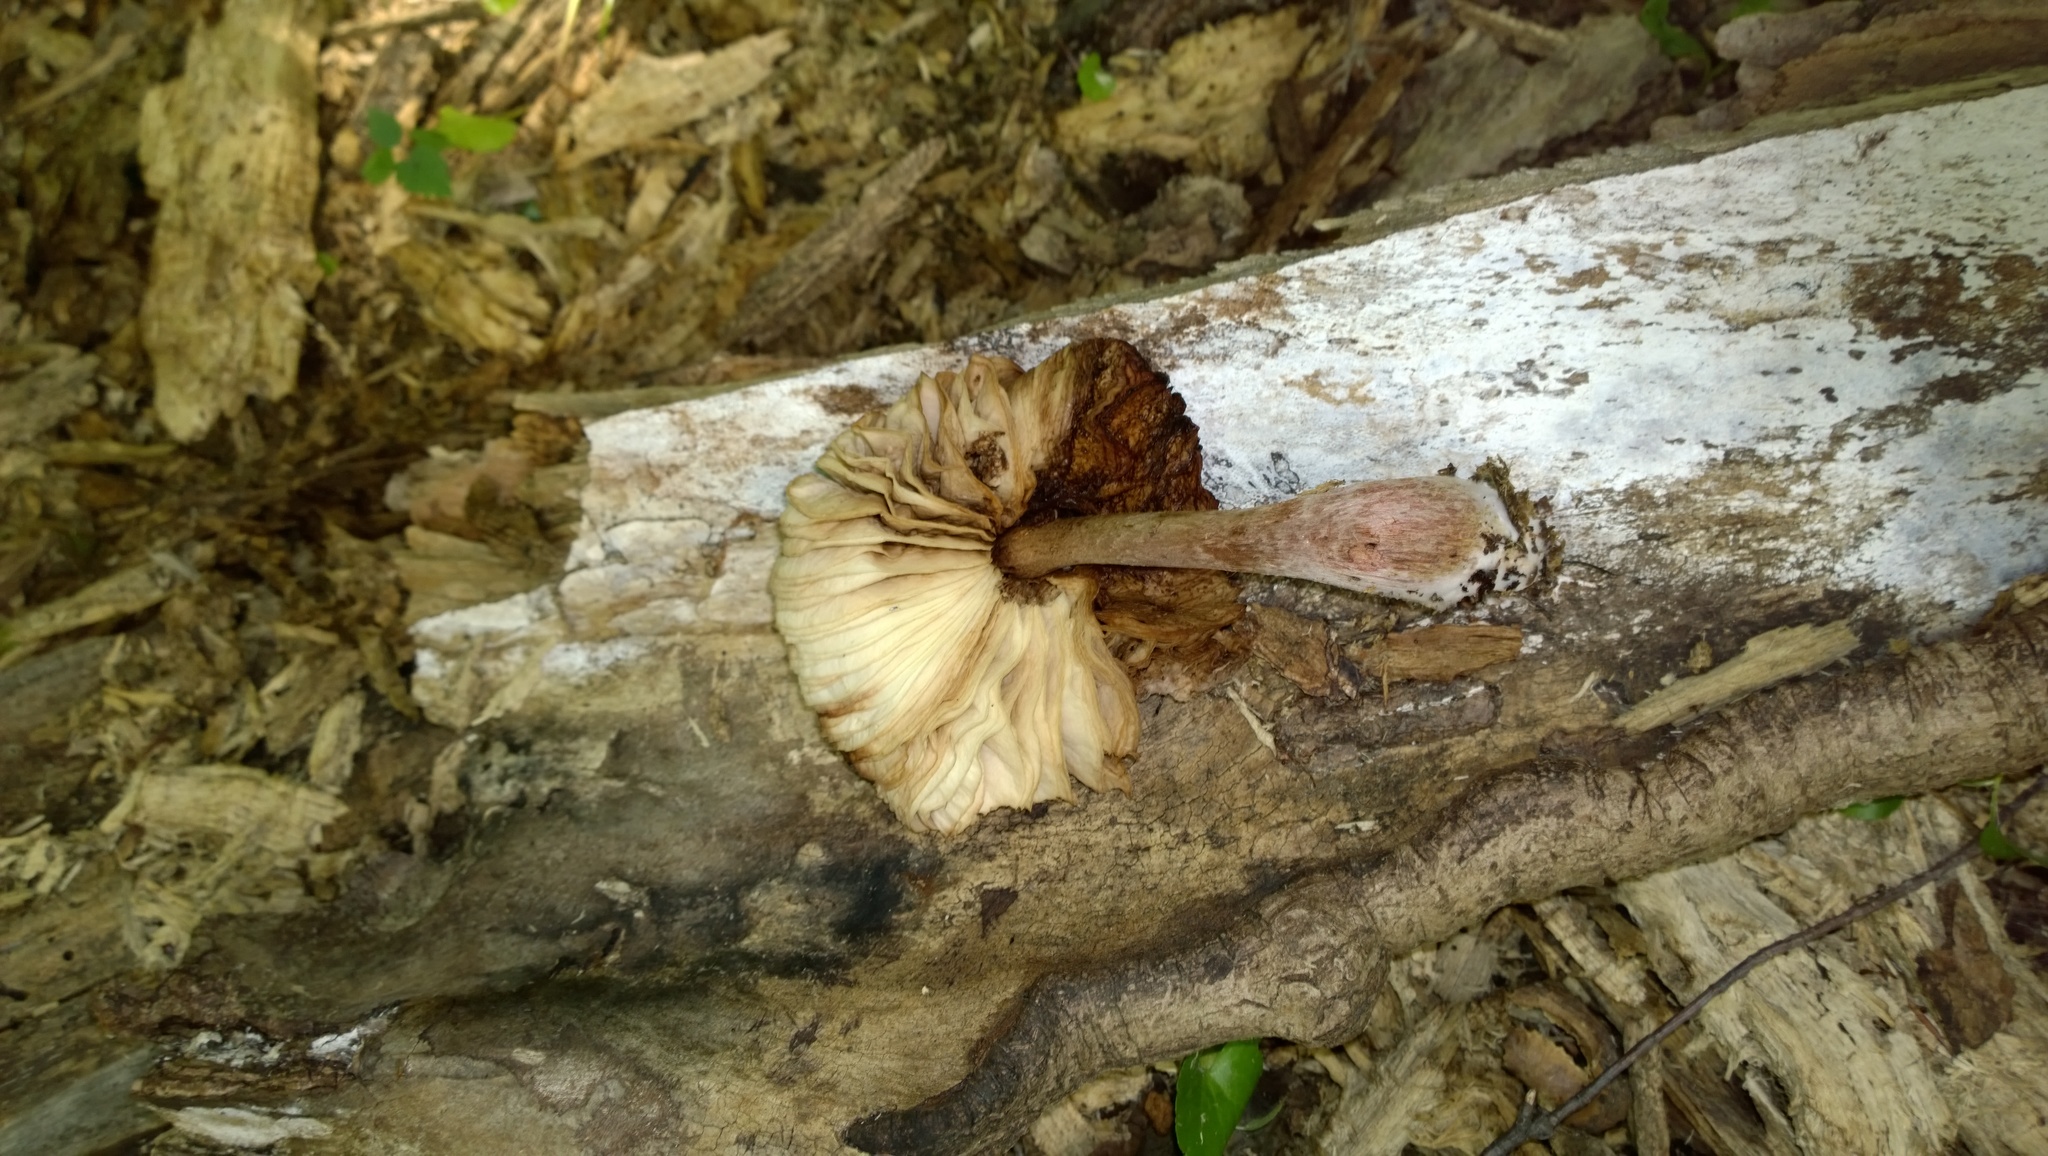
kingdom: Fungi
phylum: Basidiomycota
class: Agaricomycetes
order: Agaricales
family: Agaricaceae
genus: Leucoagaricus
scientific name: Leucoagaricus americanus
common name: Reddening lepiota
